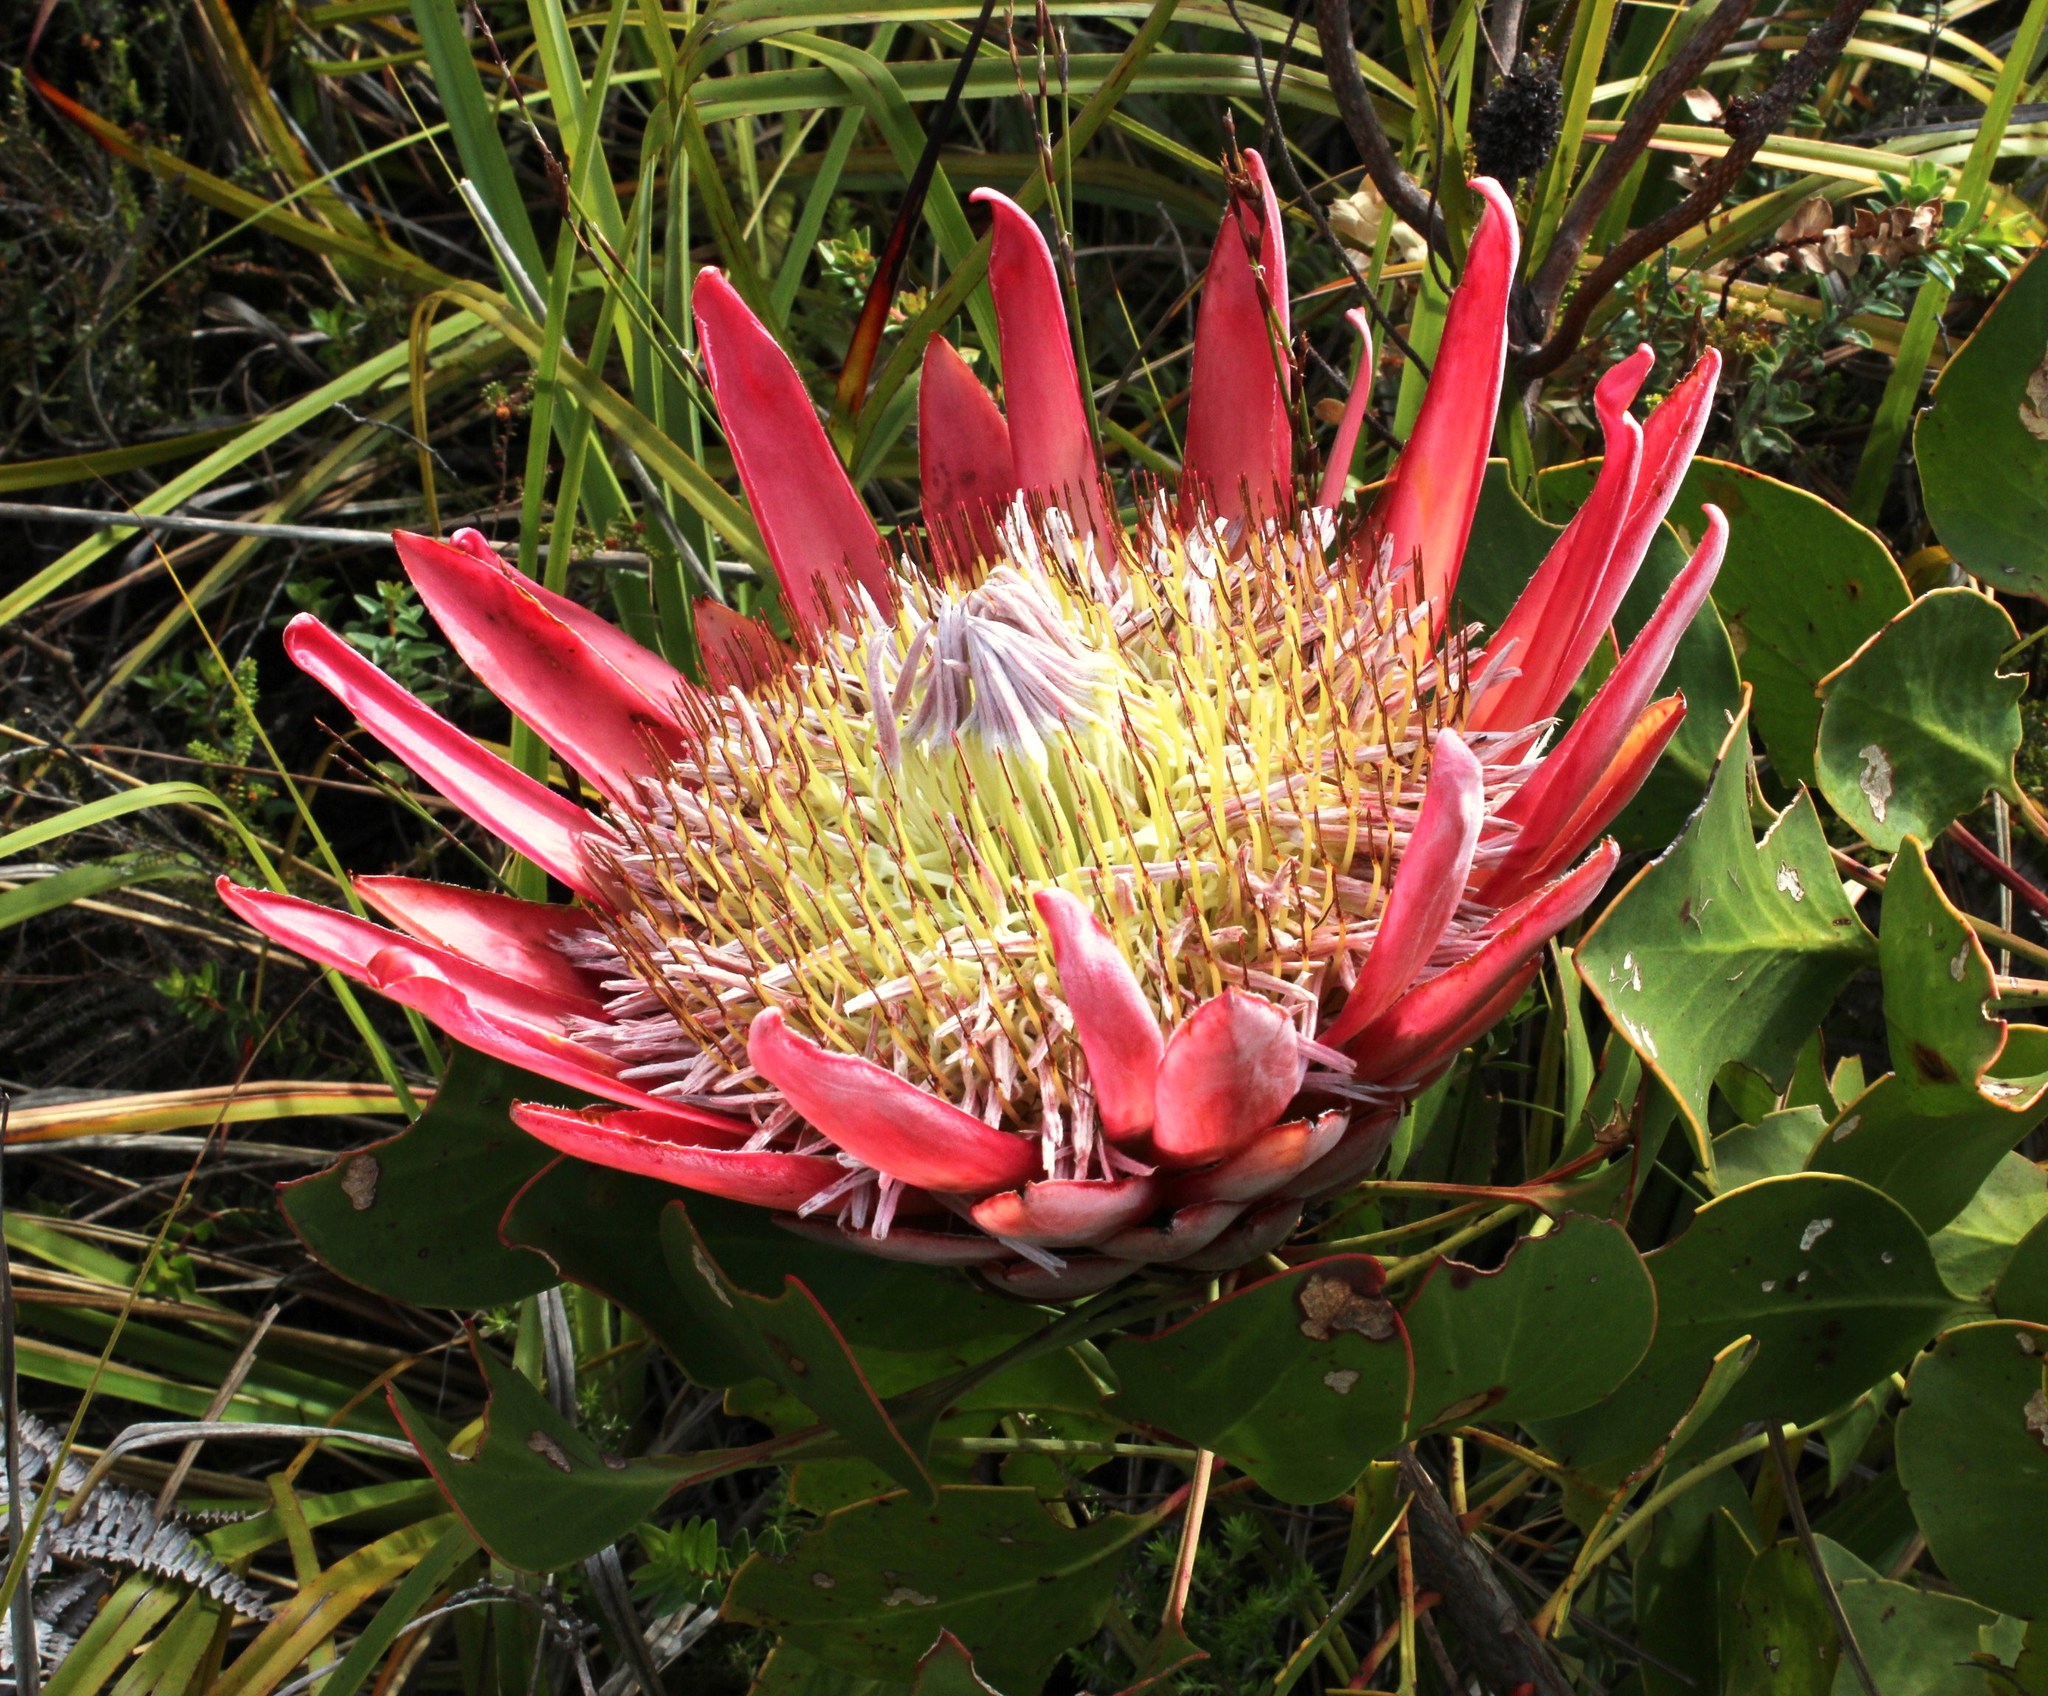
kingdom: Plantae
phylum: Tracheophyta
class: Magnoliopsida
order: Proteales
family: Proteaceae
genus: Protea
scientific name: Protea cynaroides
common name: King protea
